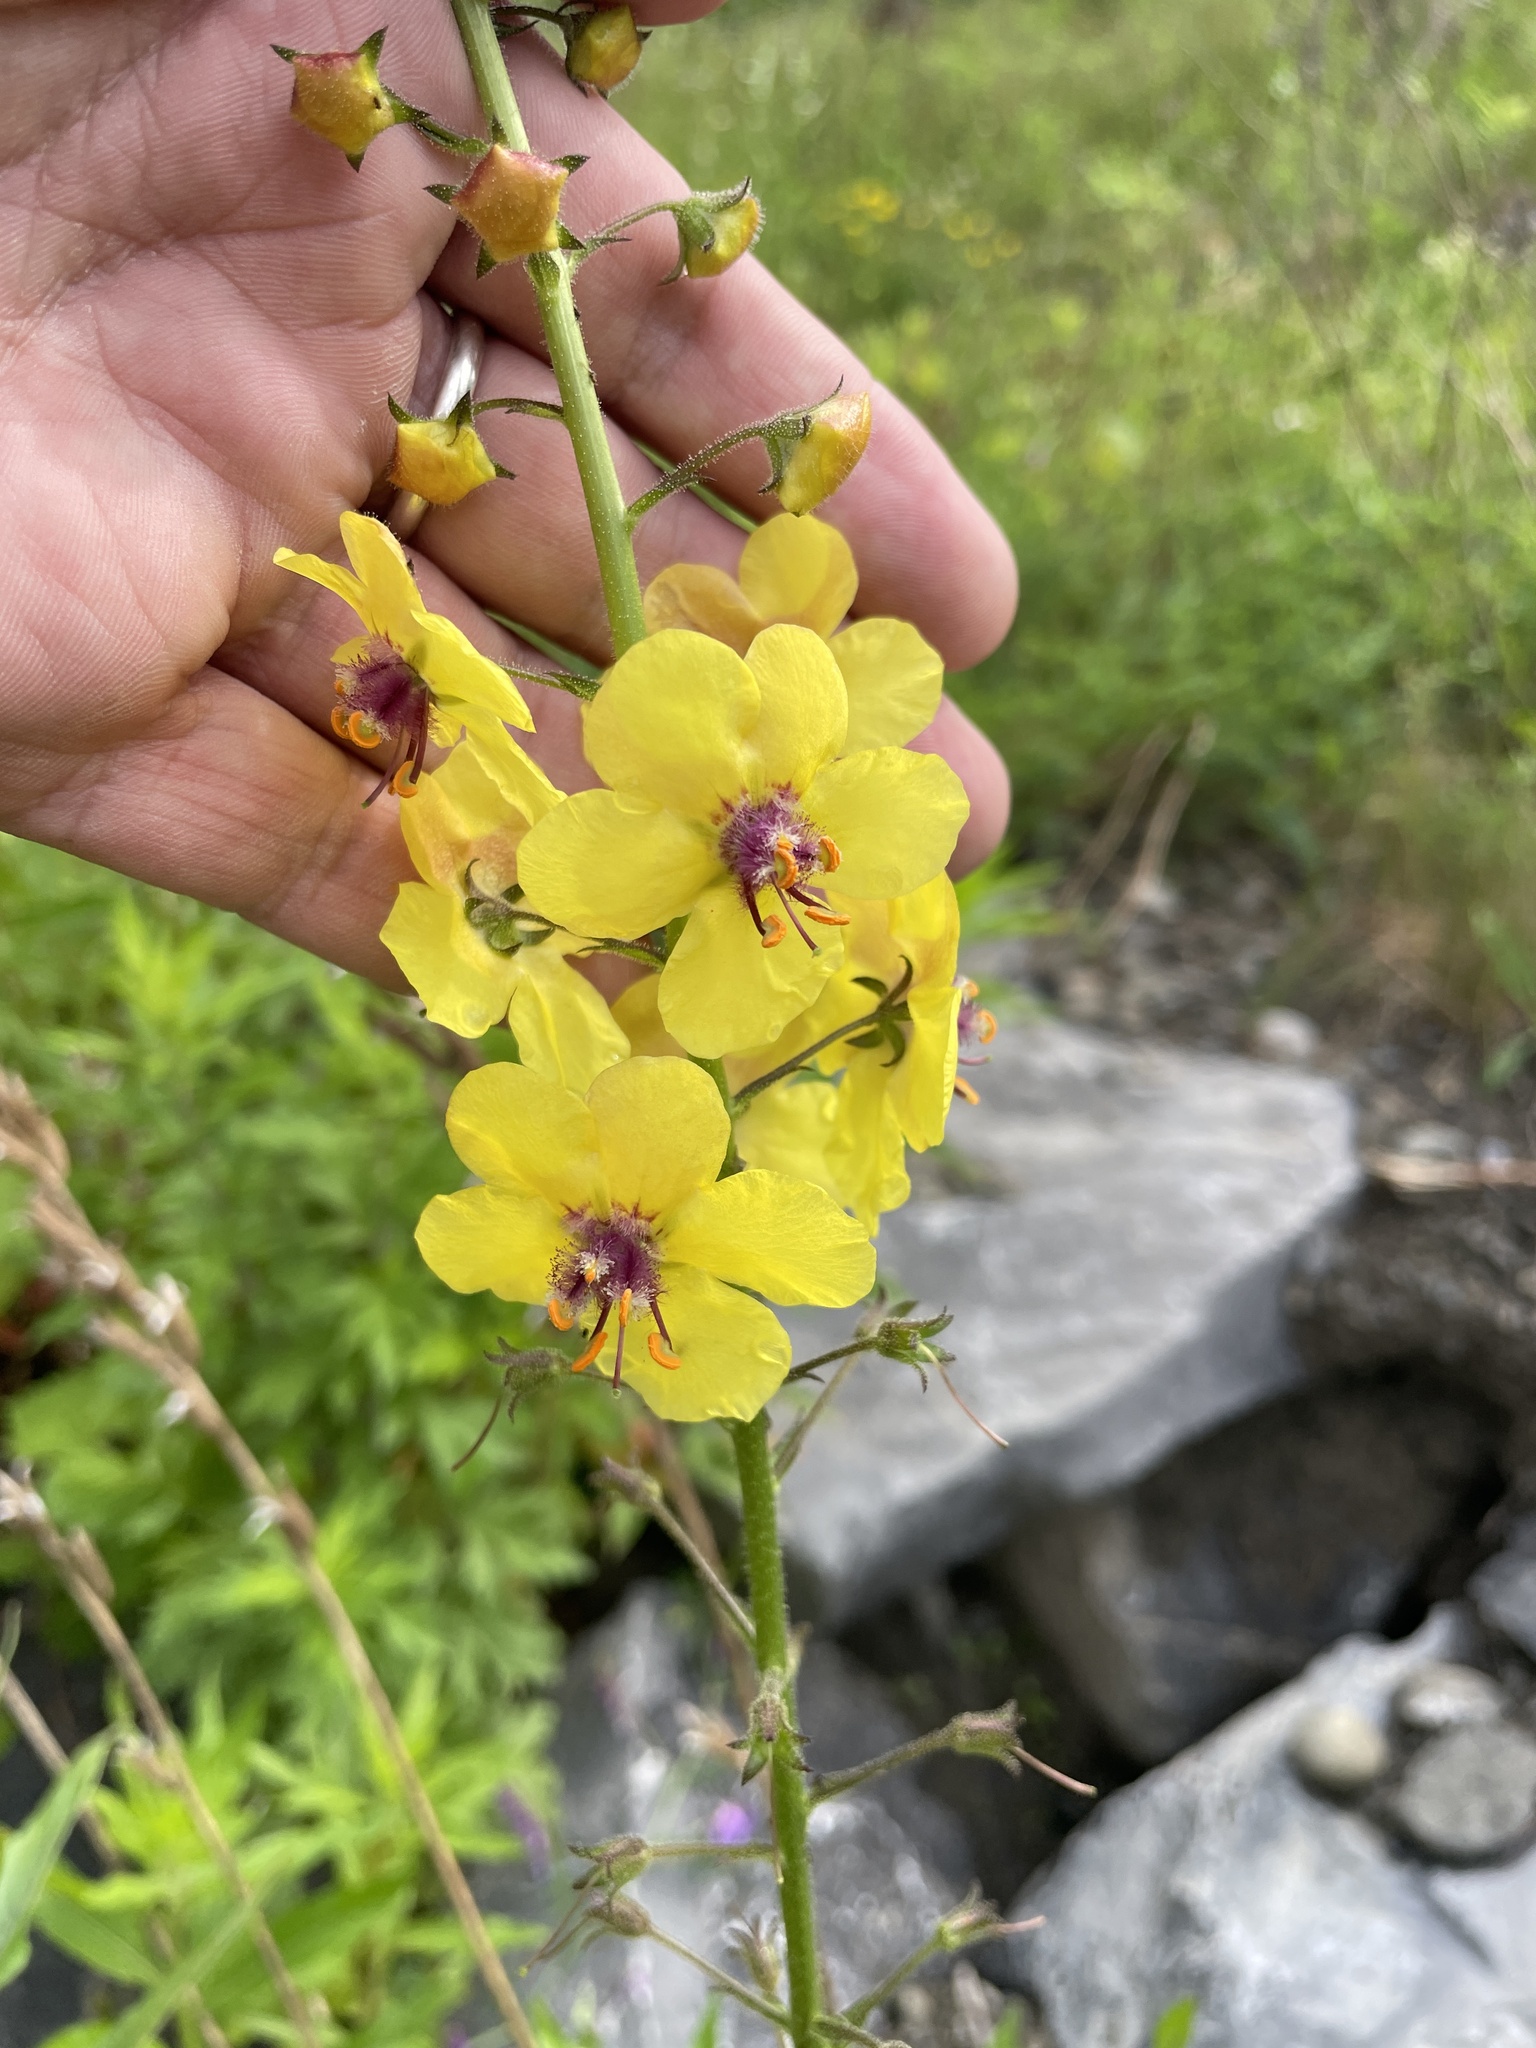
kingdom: Plantae
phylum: Tracheophyta
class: Magnoliopsida
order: Lamiales
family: Scrophulariaceae
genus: Verbascum
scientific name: Verbascum blattaria
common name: Moth mullein
